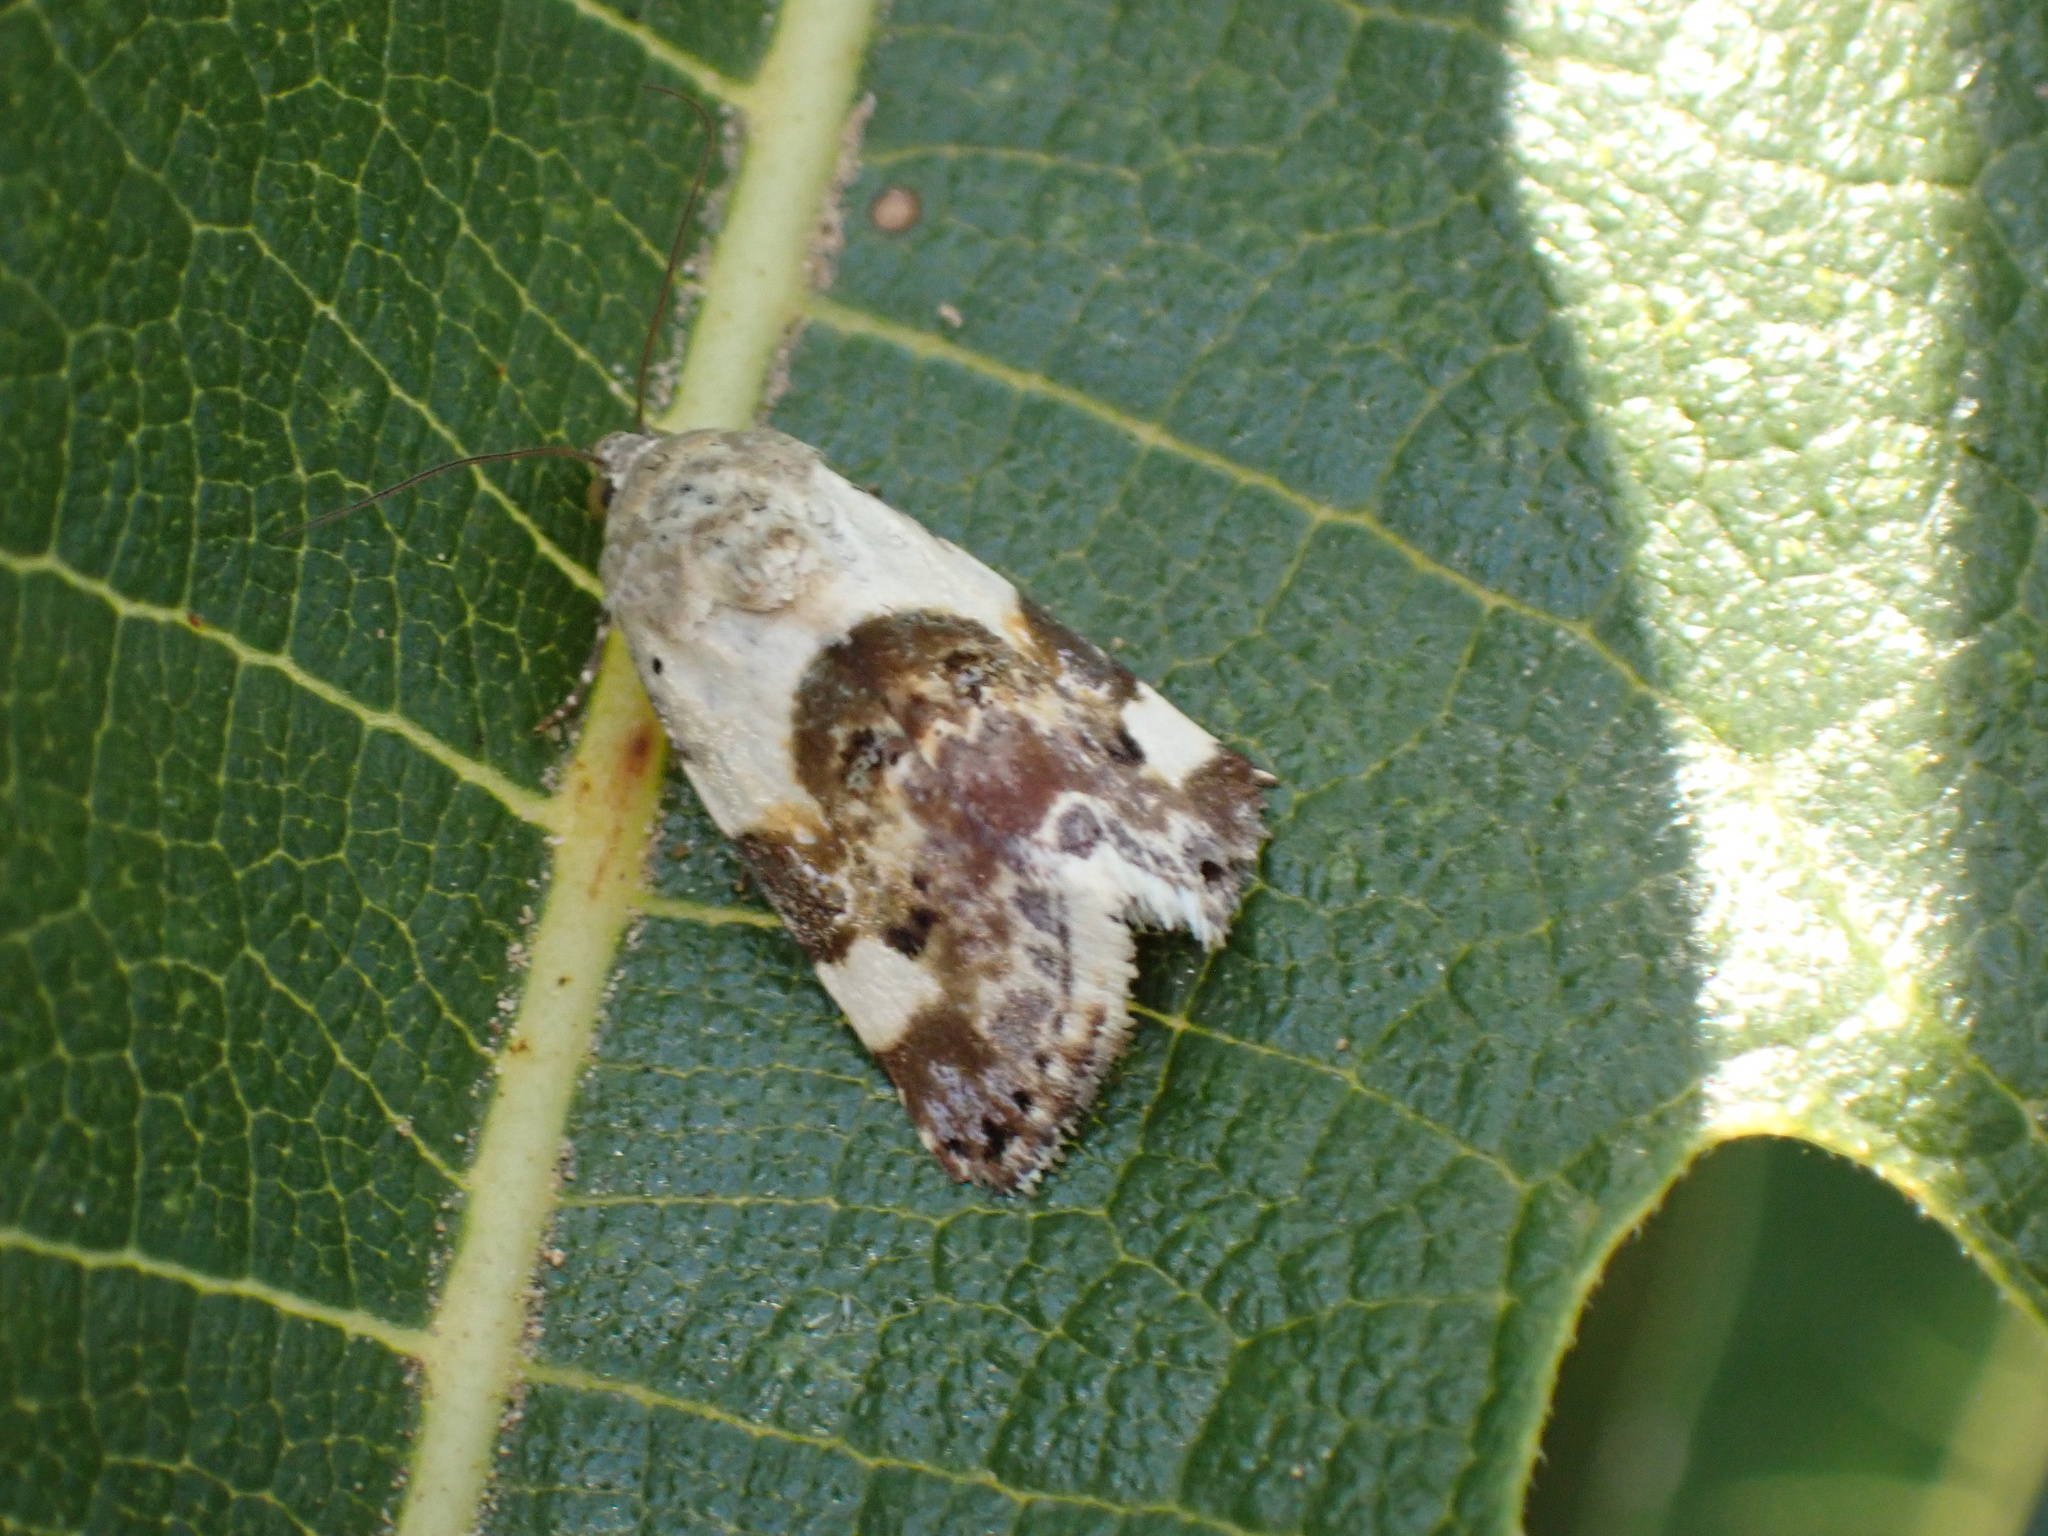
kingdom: Animalia
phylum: Arthropoda
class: Insecta
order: Lepidoptera
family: Noctuidae
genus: Acontia
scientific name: Acontia lucida
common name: Pale shoulder
